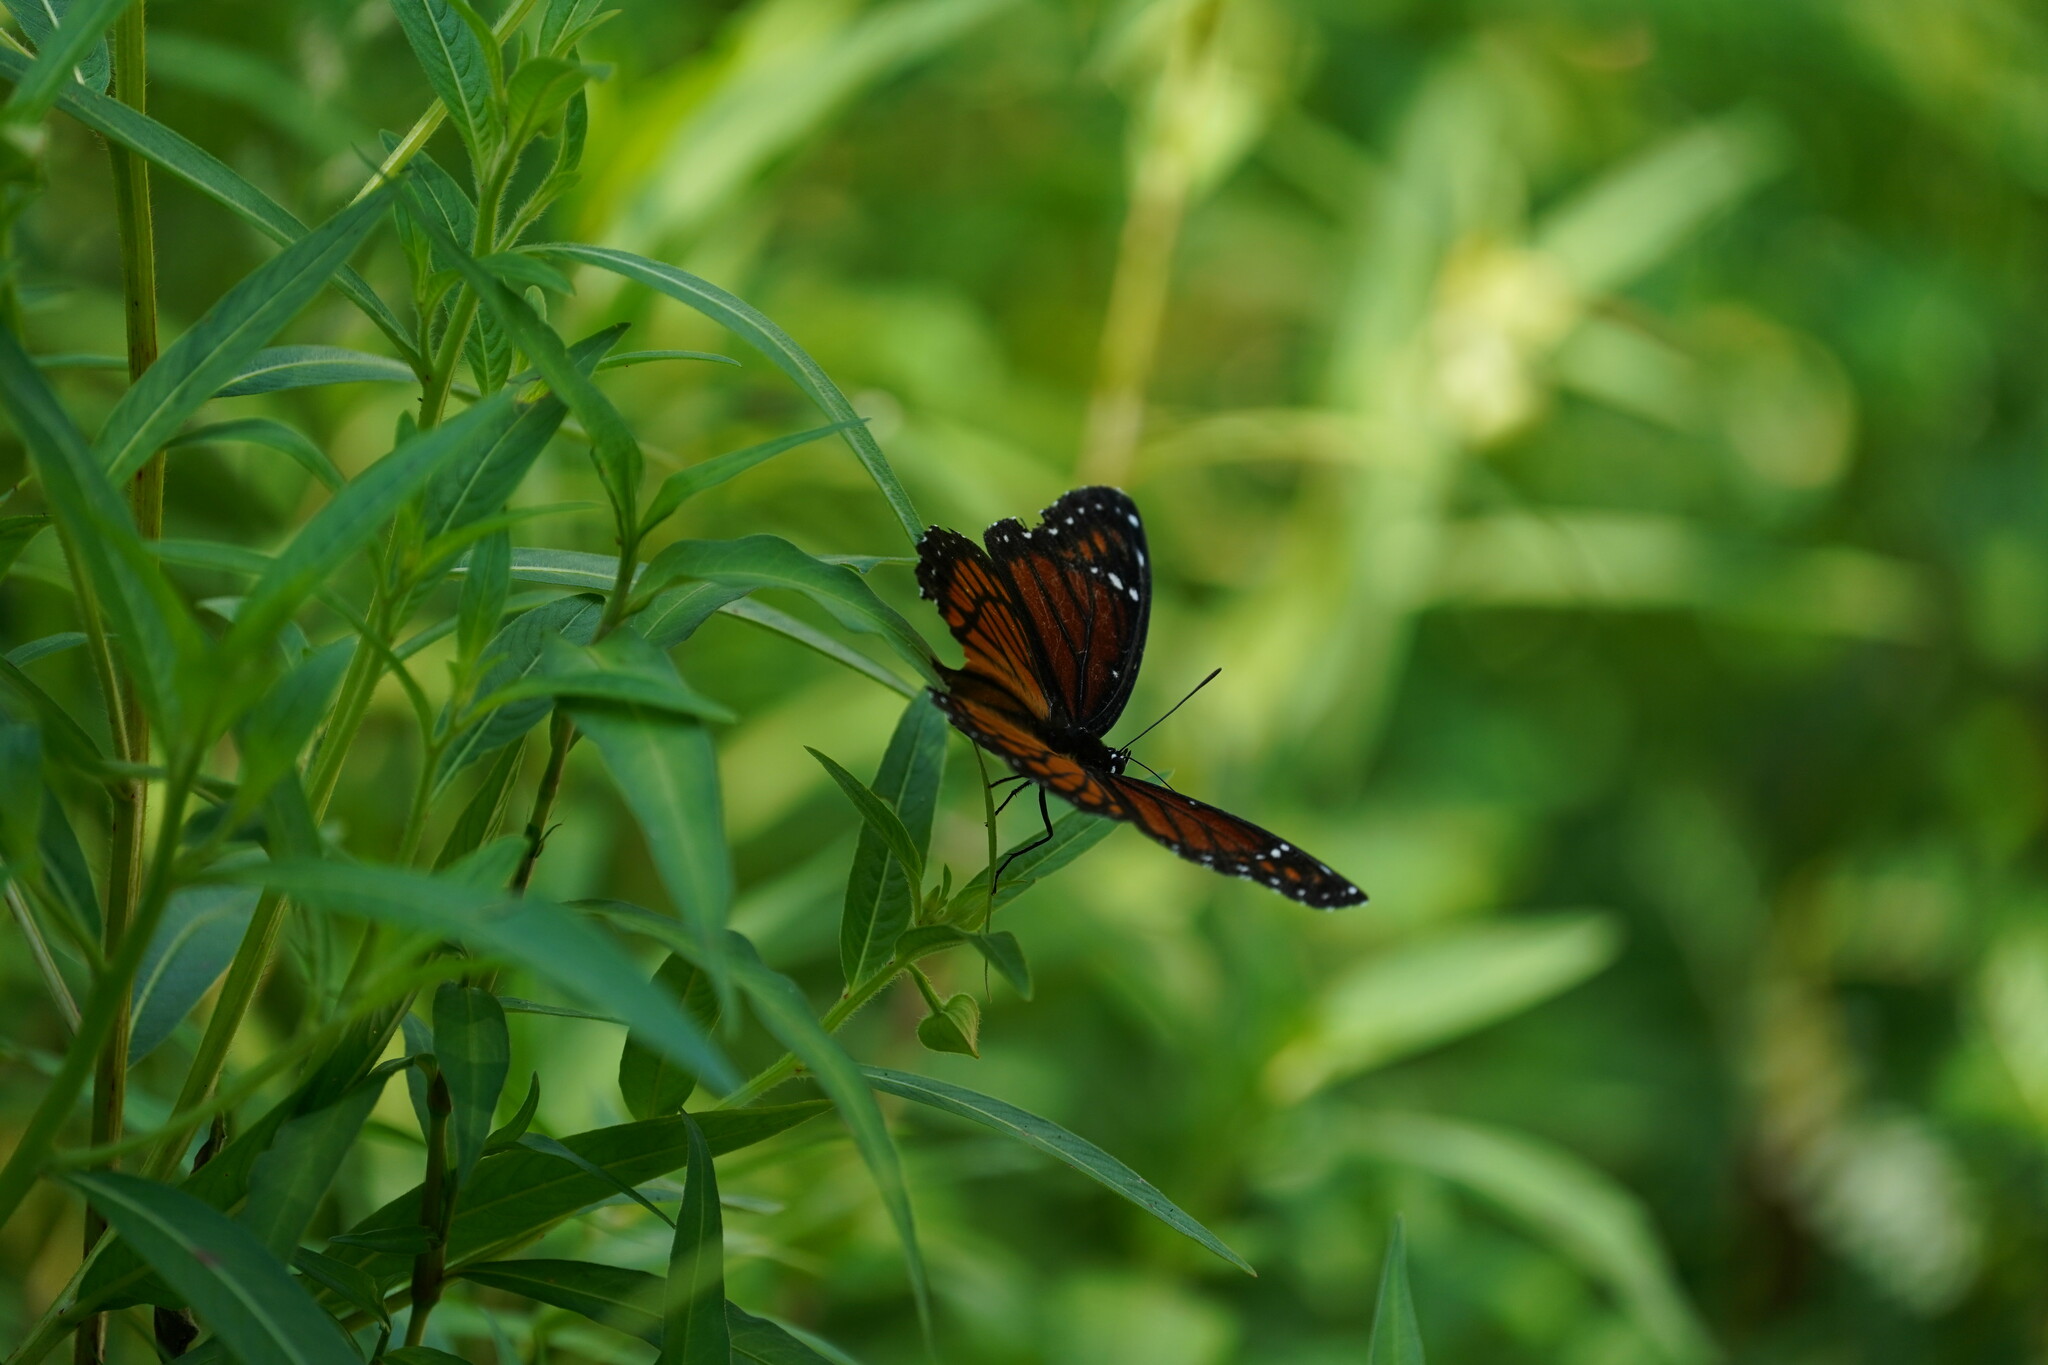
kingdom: Animalia
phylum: Arthropoda
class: Insecta
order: Lepidoptera
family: Nymphalidae
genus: Limenitis
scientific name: Limenitis archippus
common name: Viceroy
